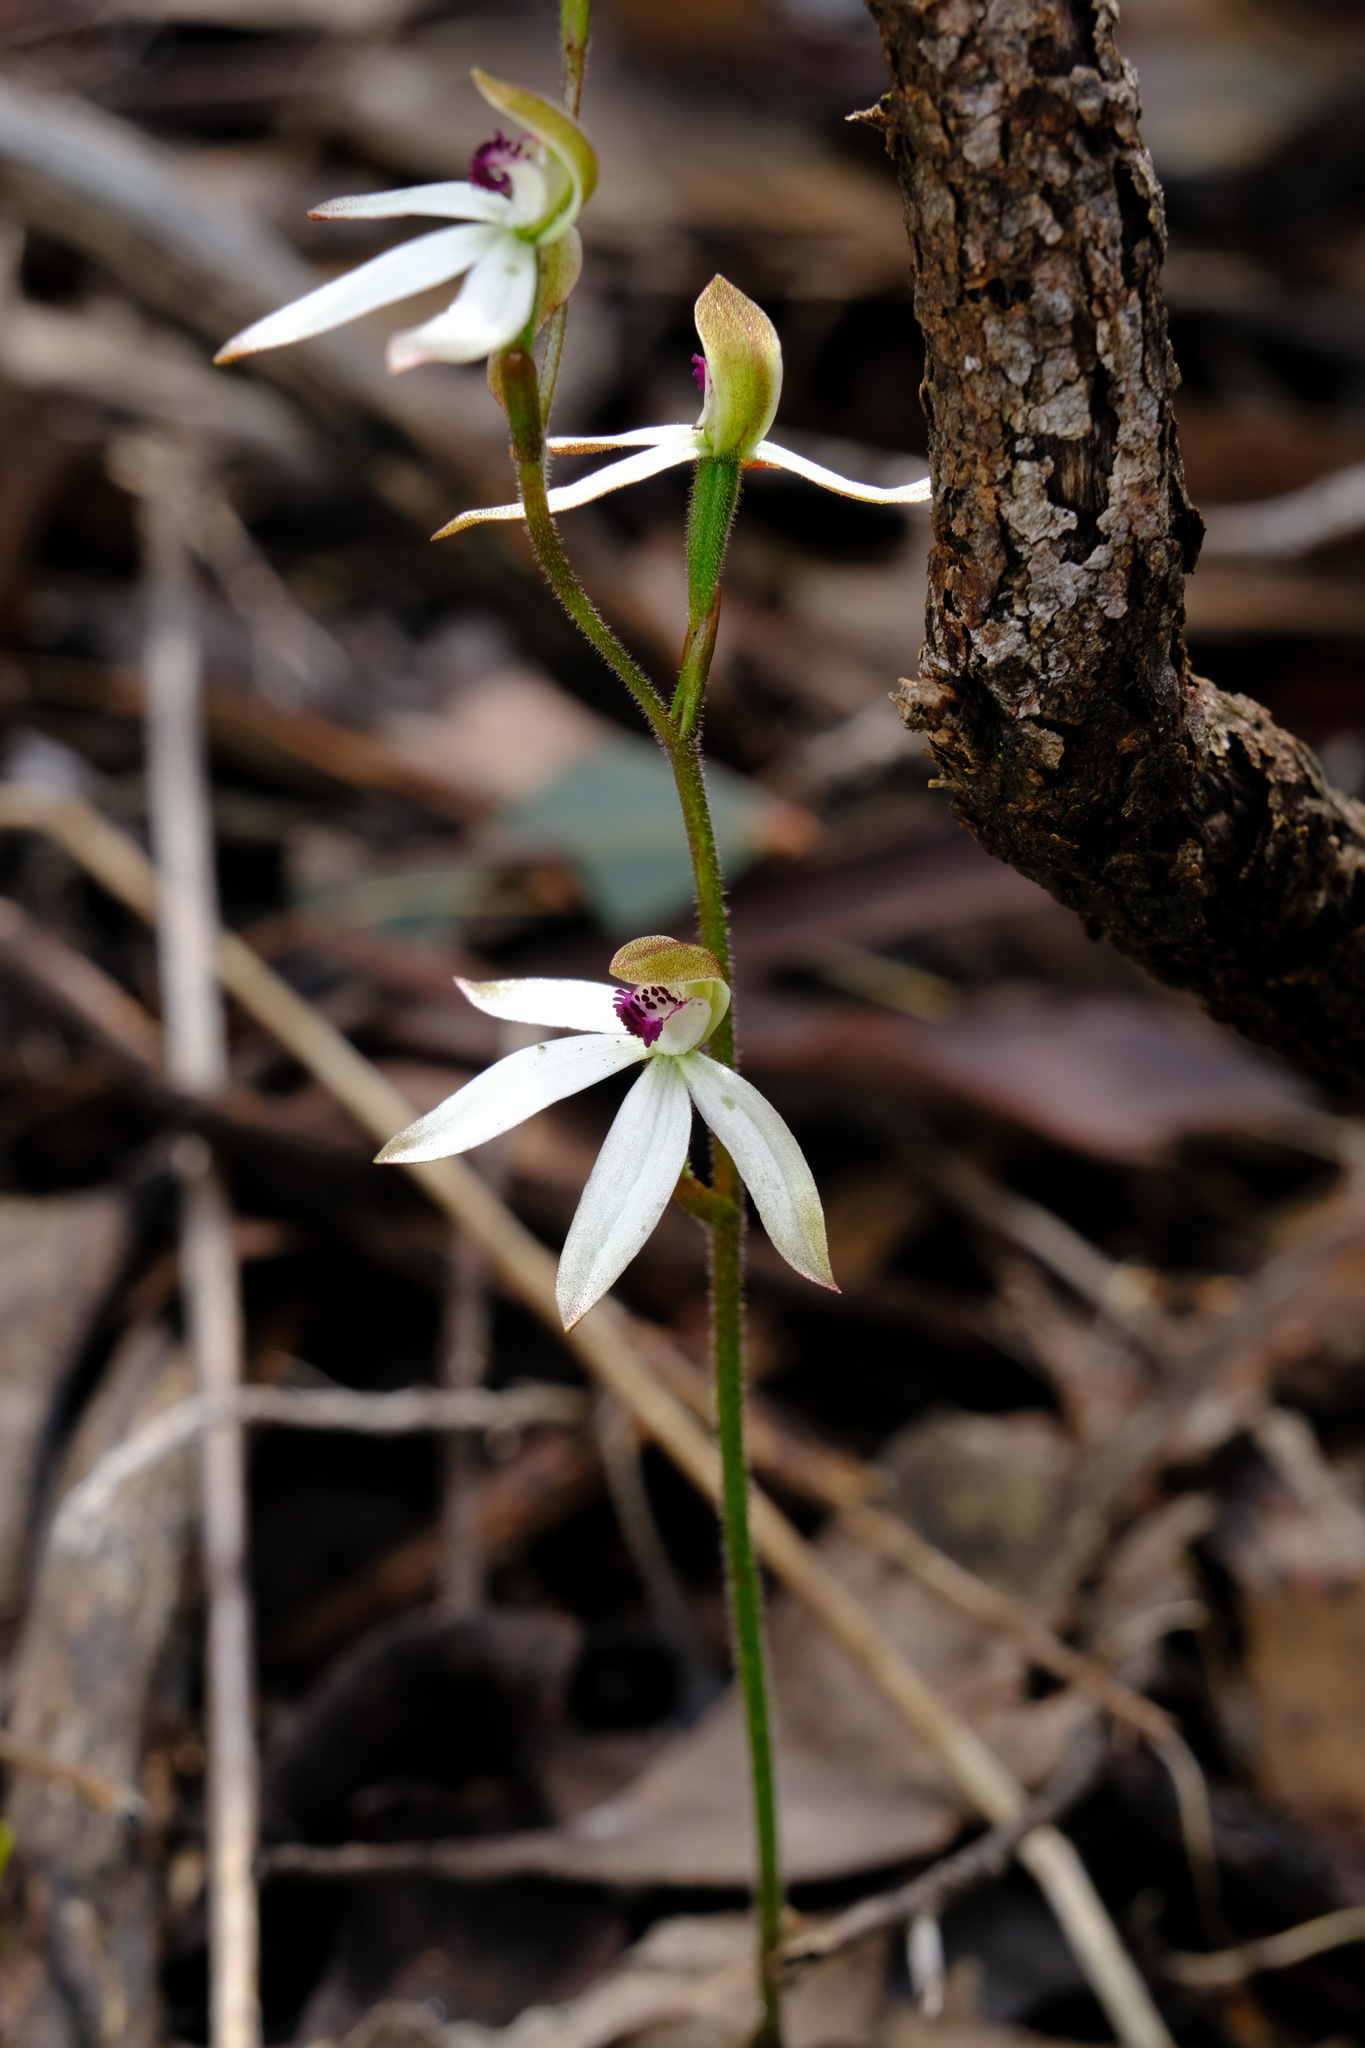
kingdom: Plantae
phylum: Tracheophyta
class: Liliopsida
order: Asparagales
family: Orchidaceae
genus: Caladenia
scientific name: Caladenia cucullata
